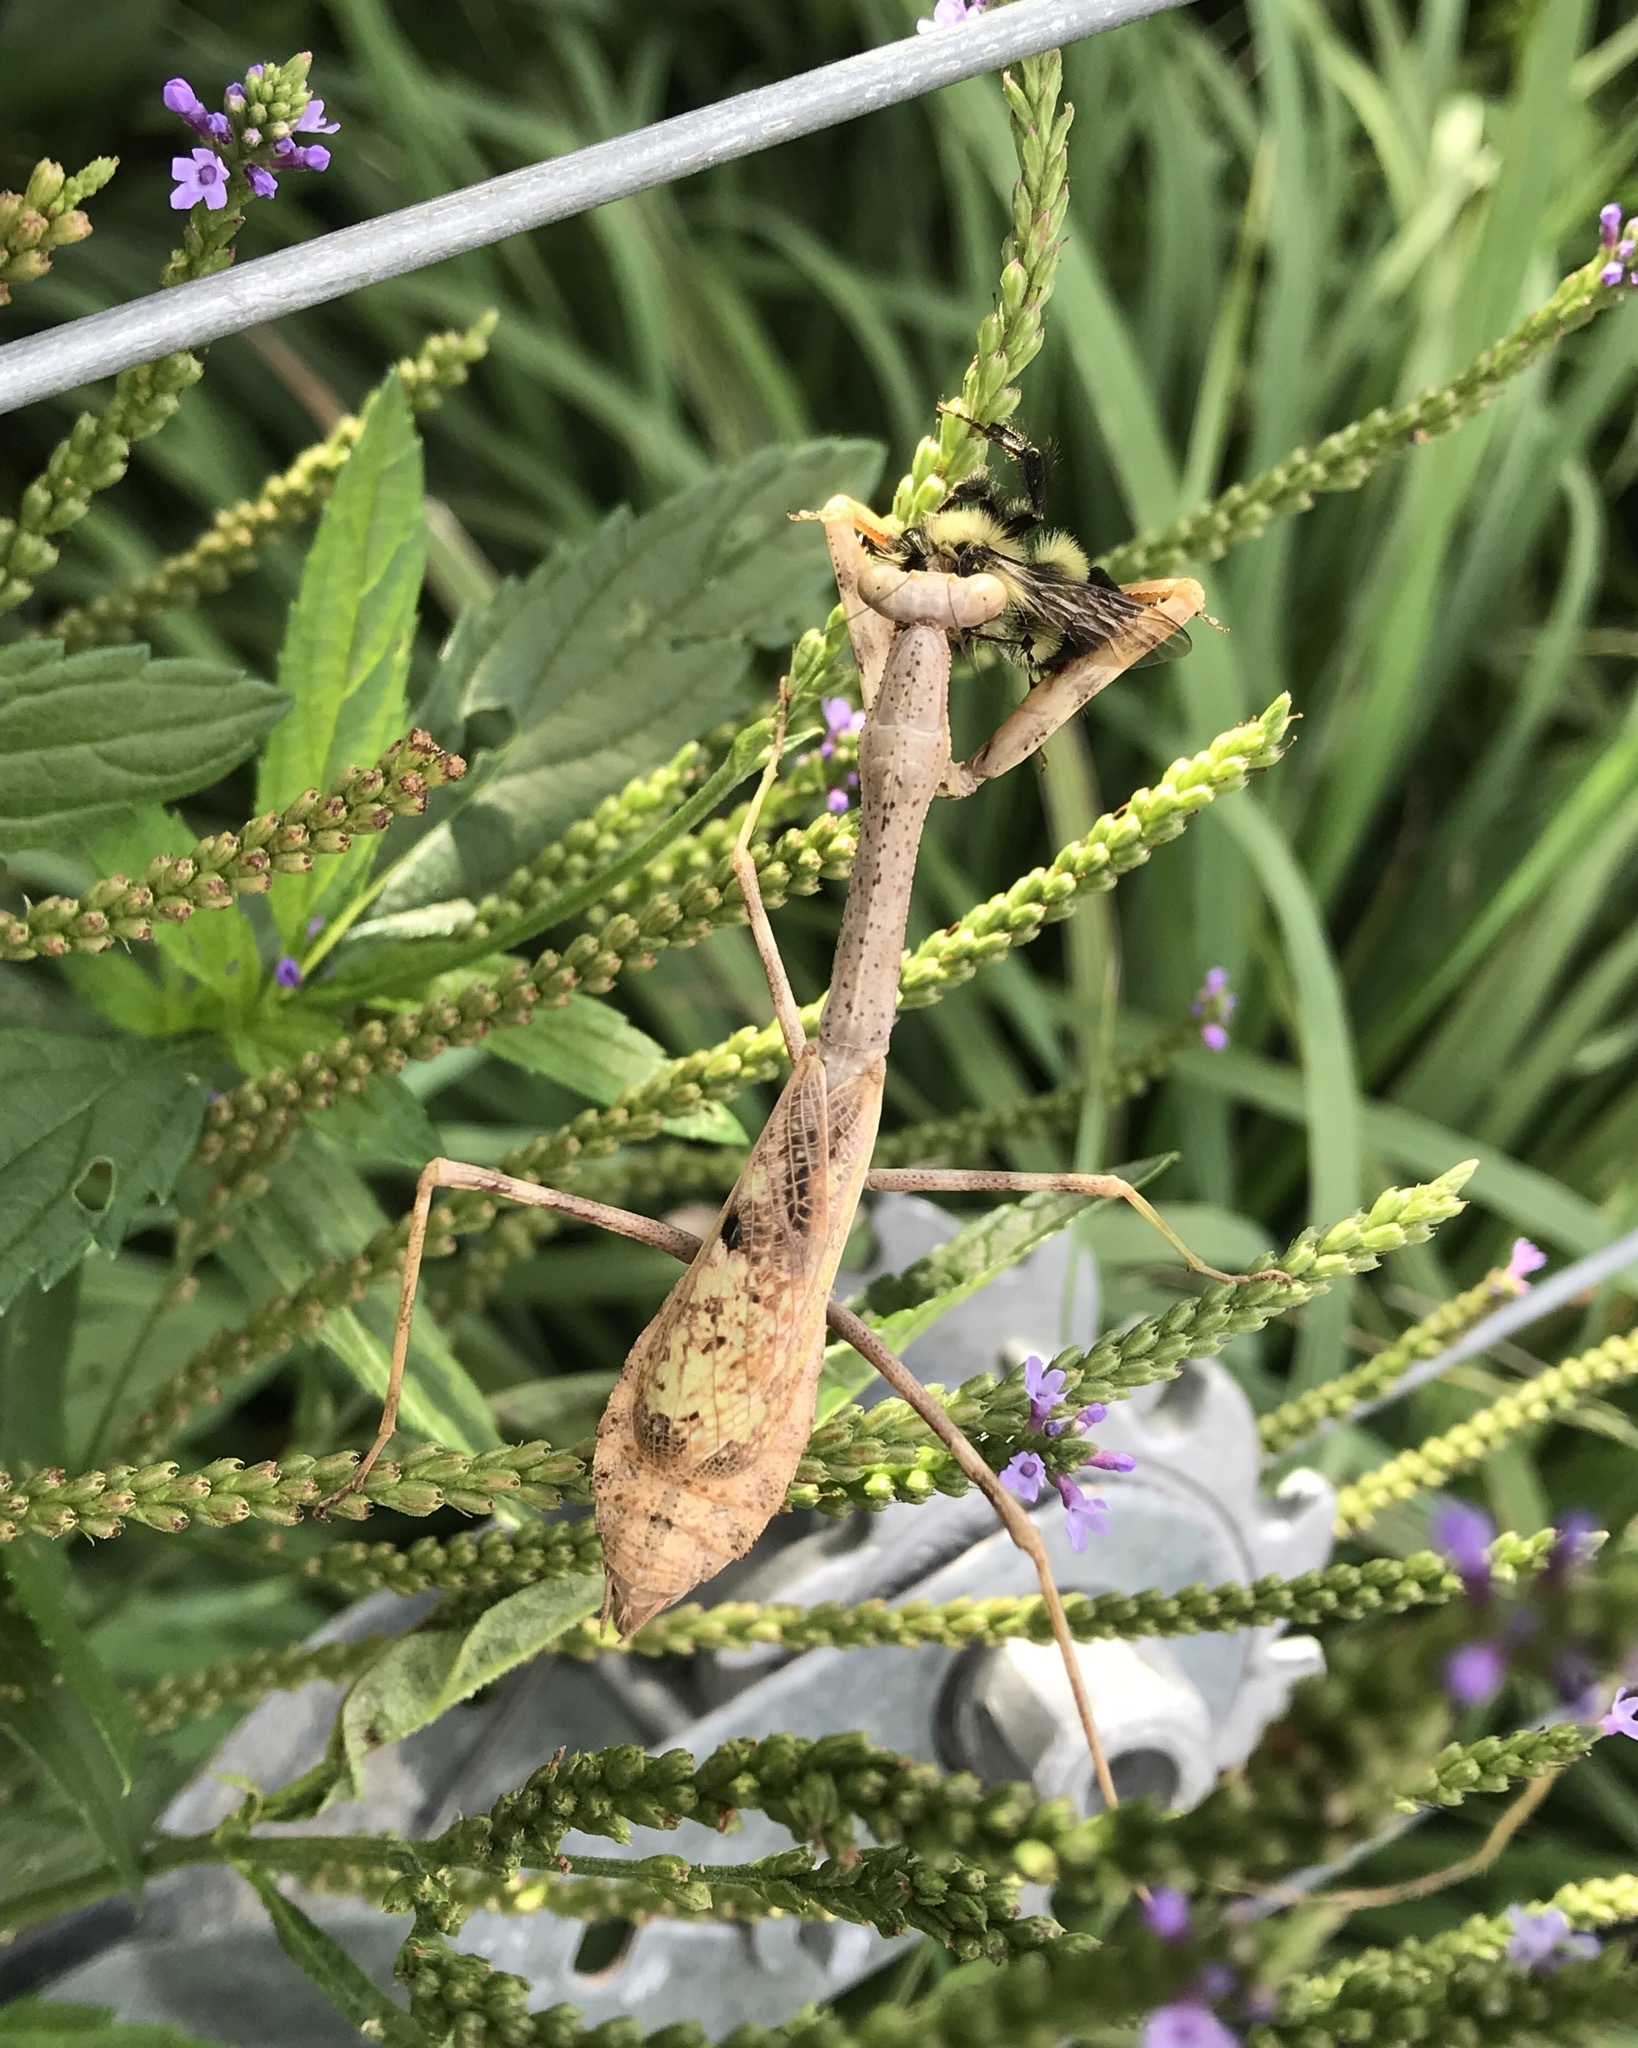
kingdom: Animalia
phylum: Arthropoda
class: Insecta
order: Mantodea
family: Mantidae
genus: Stagmomantis
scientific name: Stagmomantis carolina
